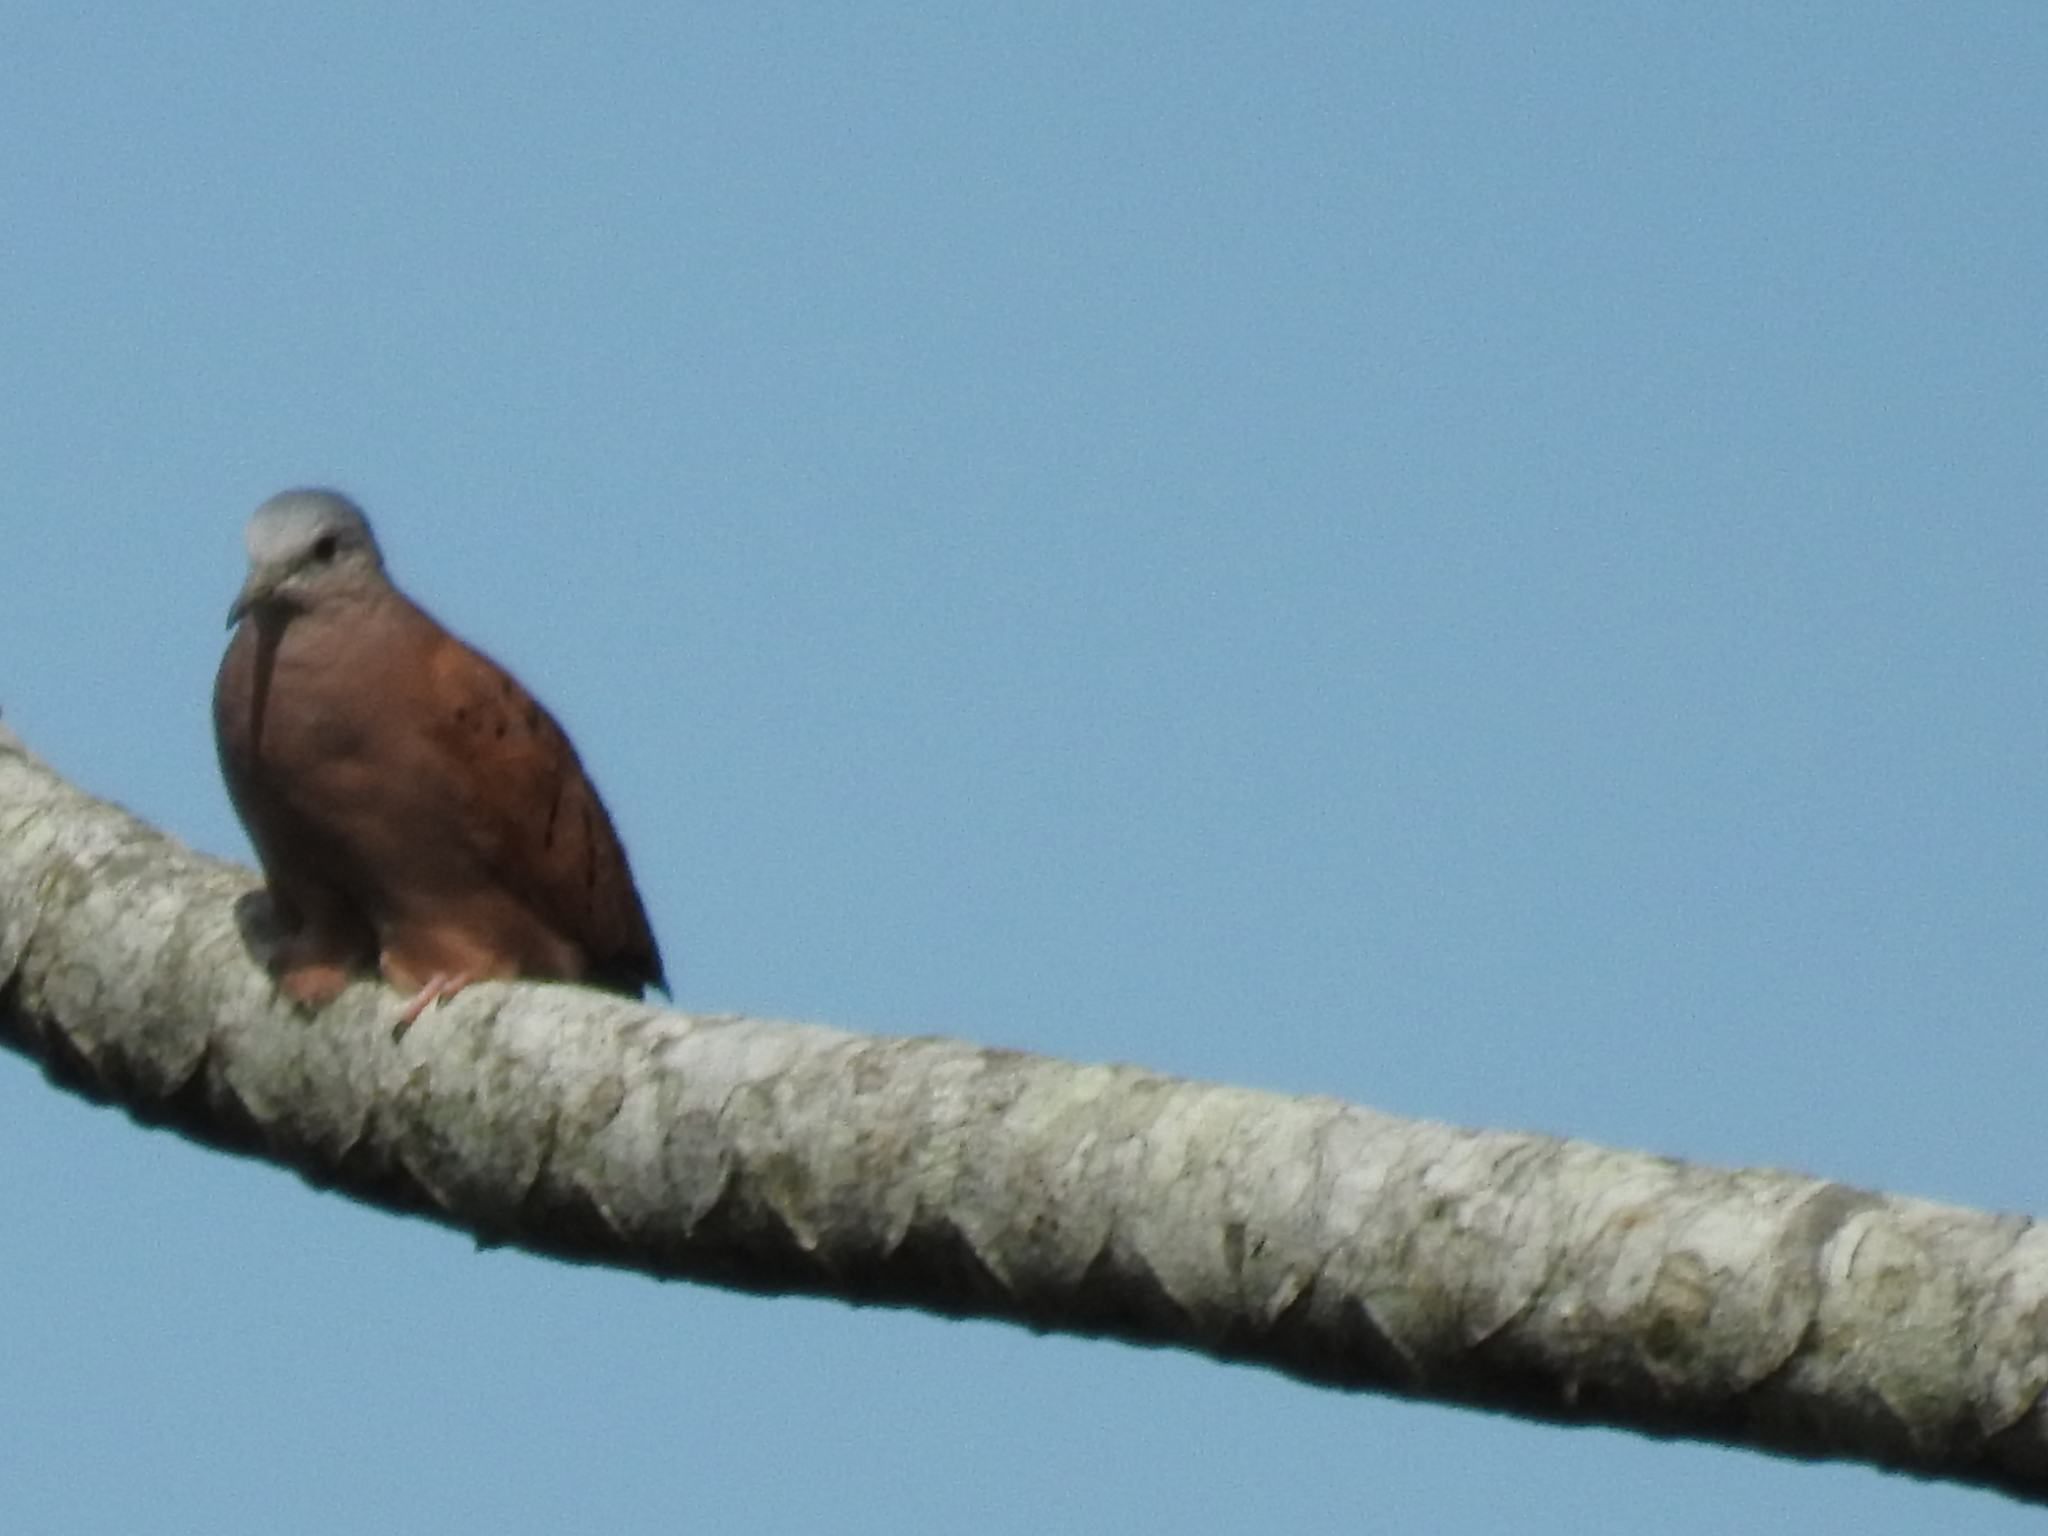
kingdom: Animalia
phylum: Chordata
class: Aves
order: Columbiformes
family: Columbidae
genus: Columbina
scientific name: Columbina talpacoti
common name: Ruddy ground dove
